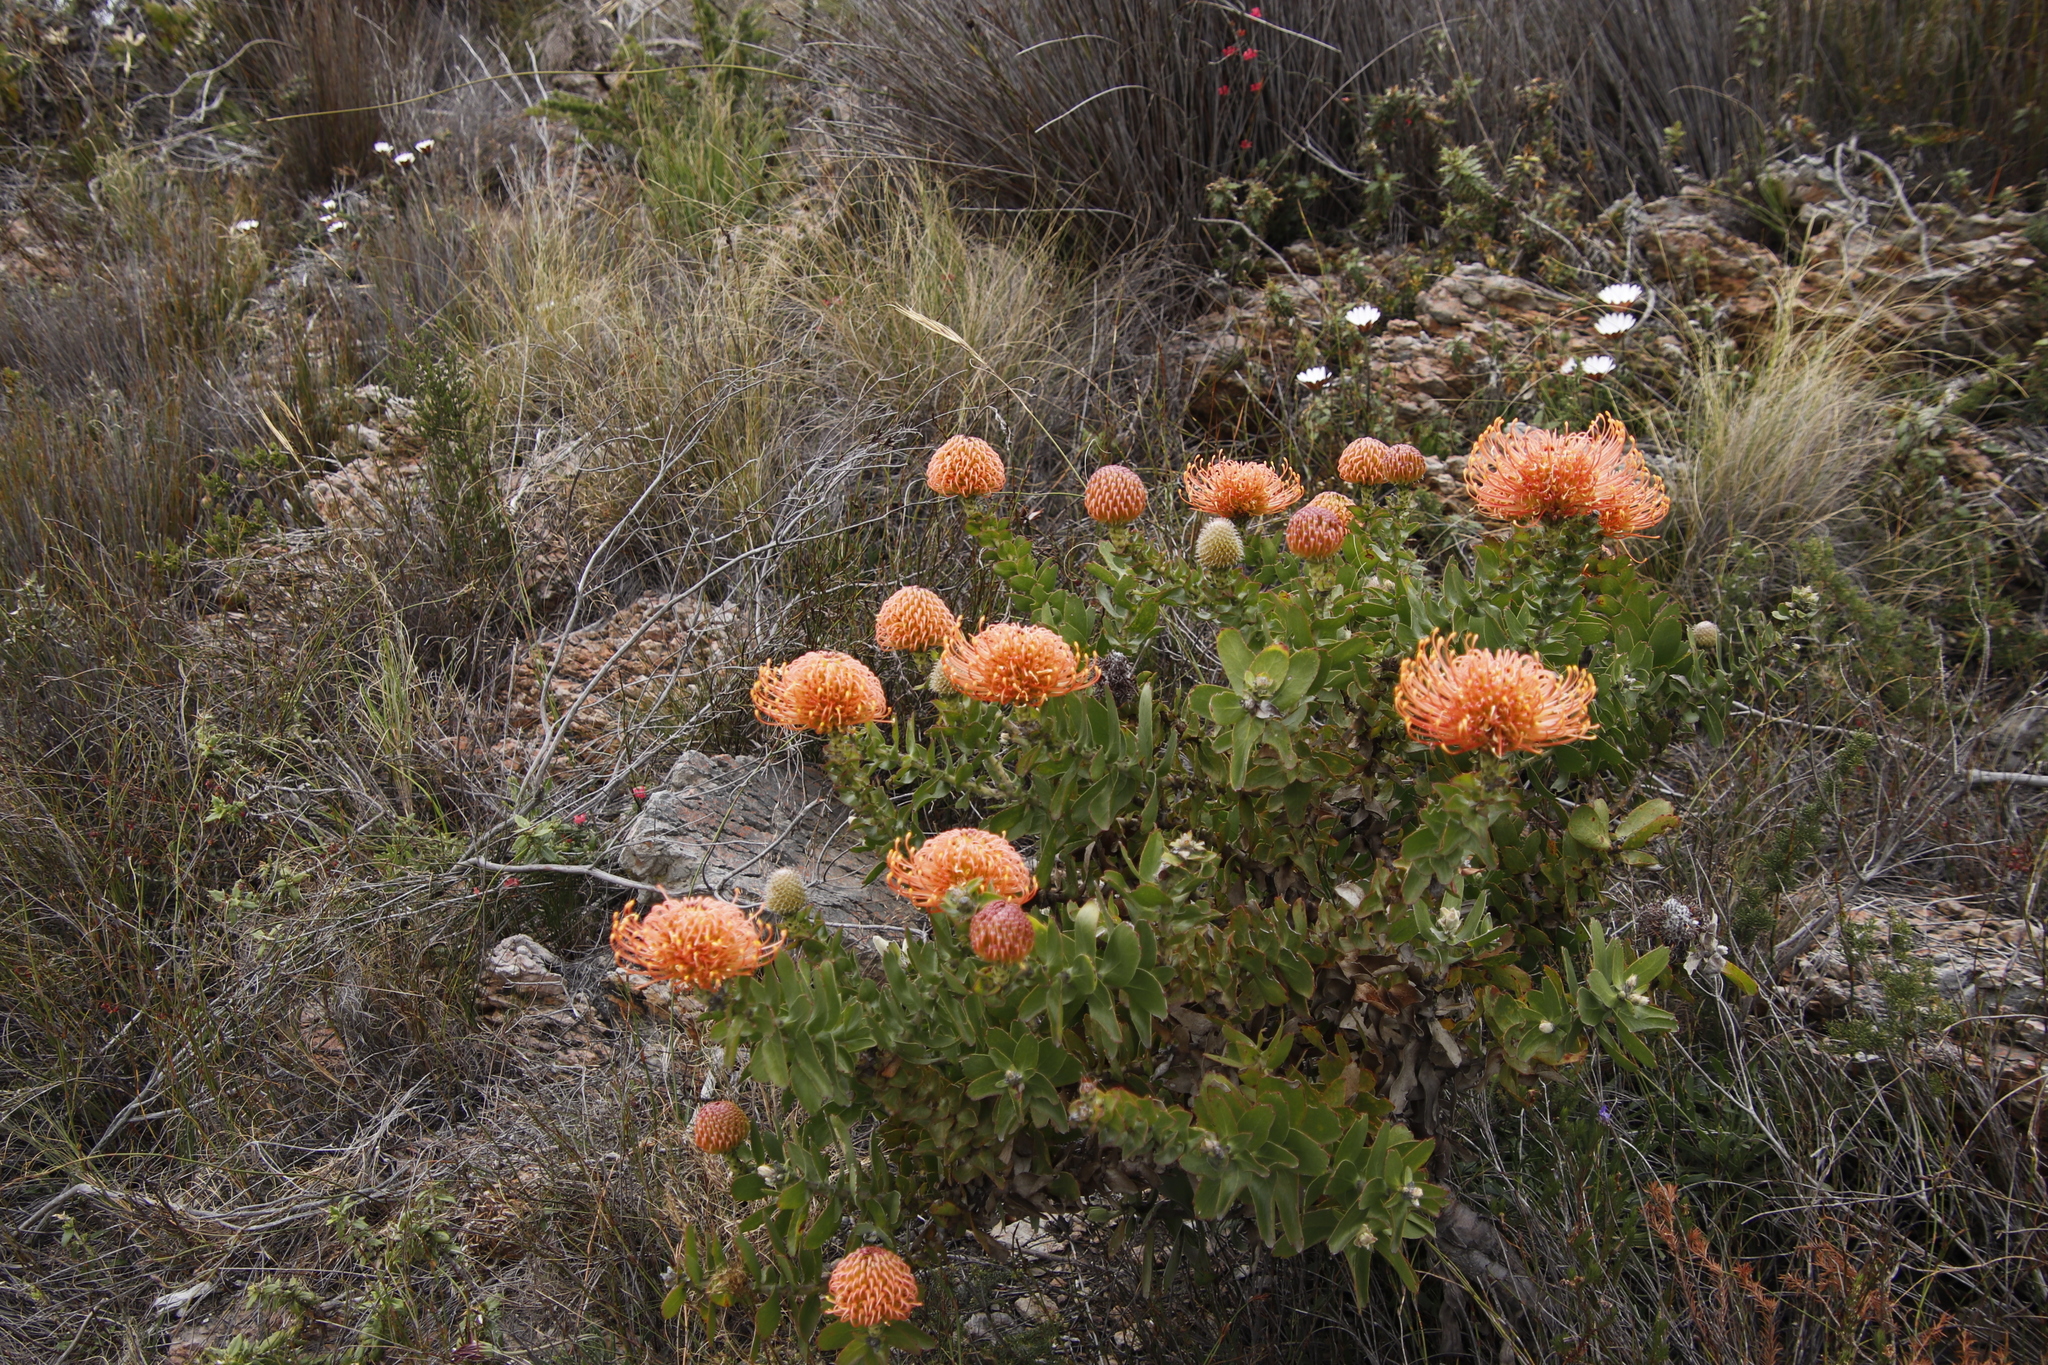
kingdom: Plantae
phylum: Tracheophyta
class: Magnoliopsida
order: Proteales
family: Proteaceae
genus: Leucospermum
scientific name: Leucospermum cordifolium
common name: Red pincushion-protea
